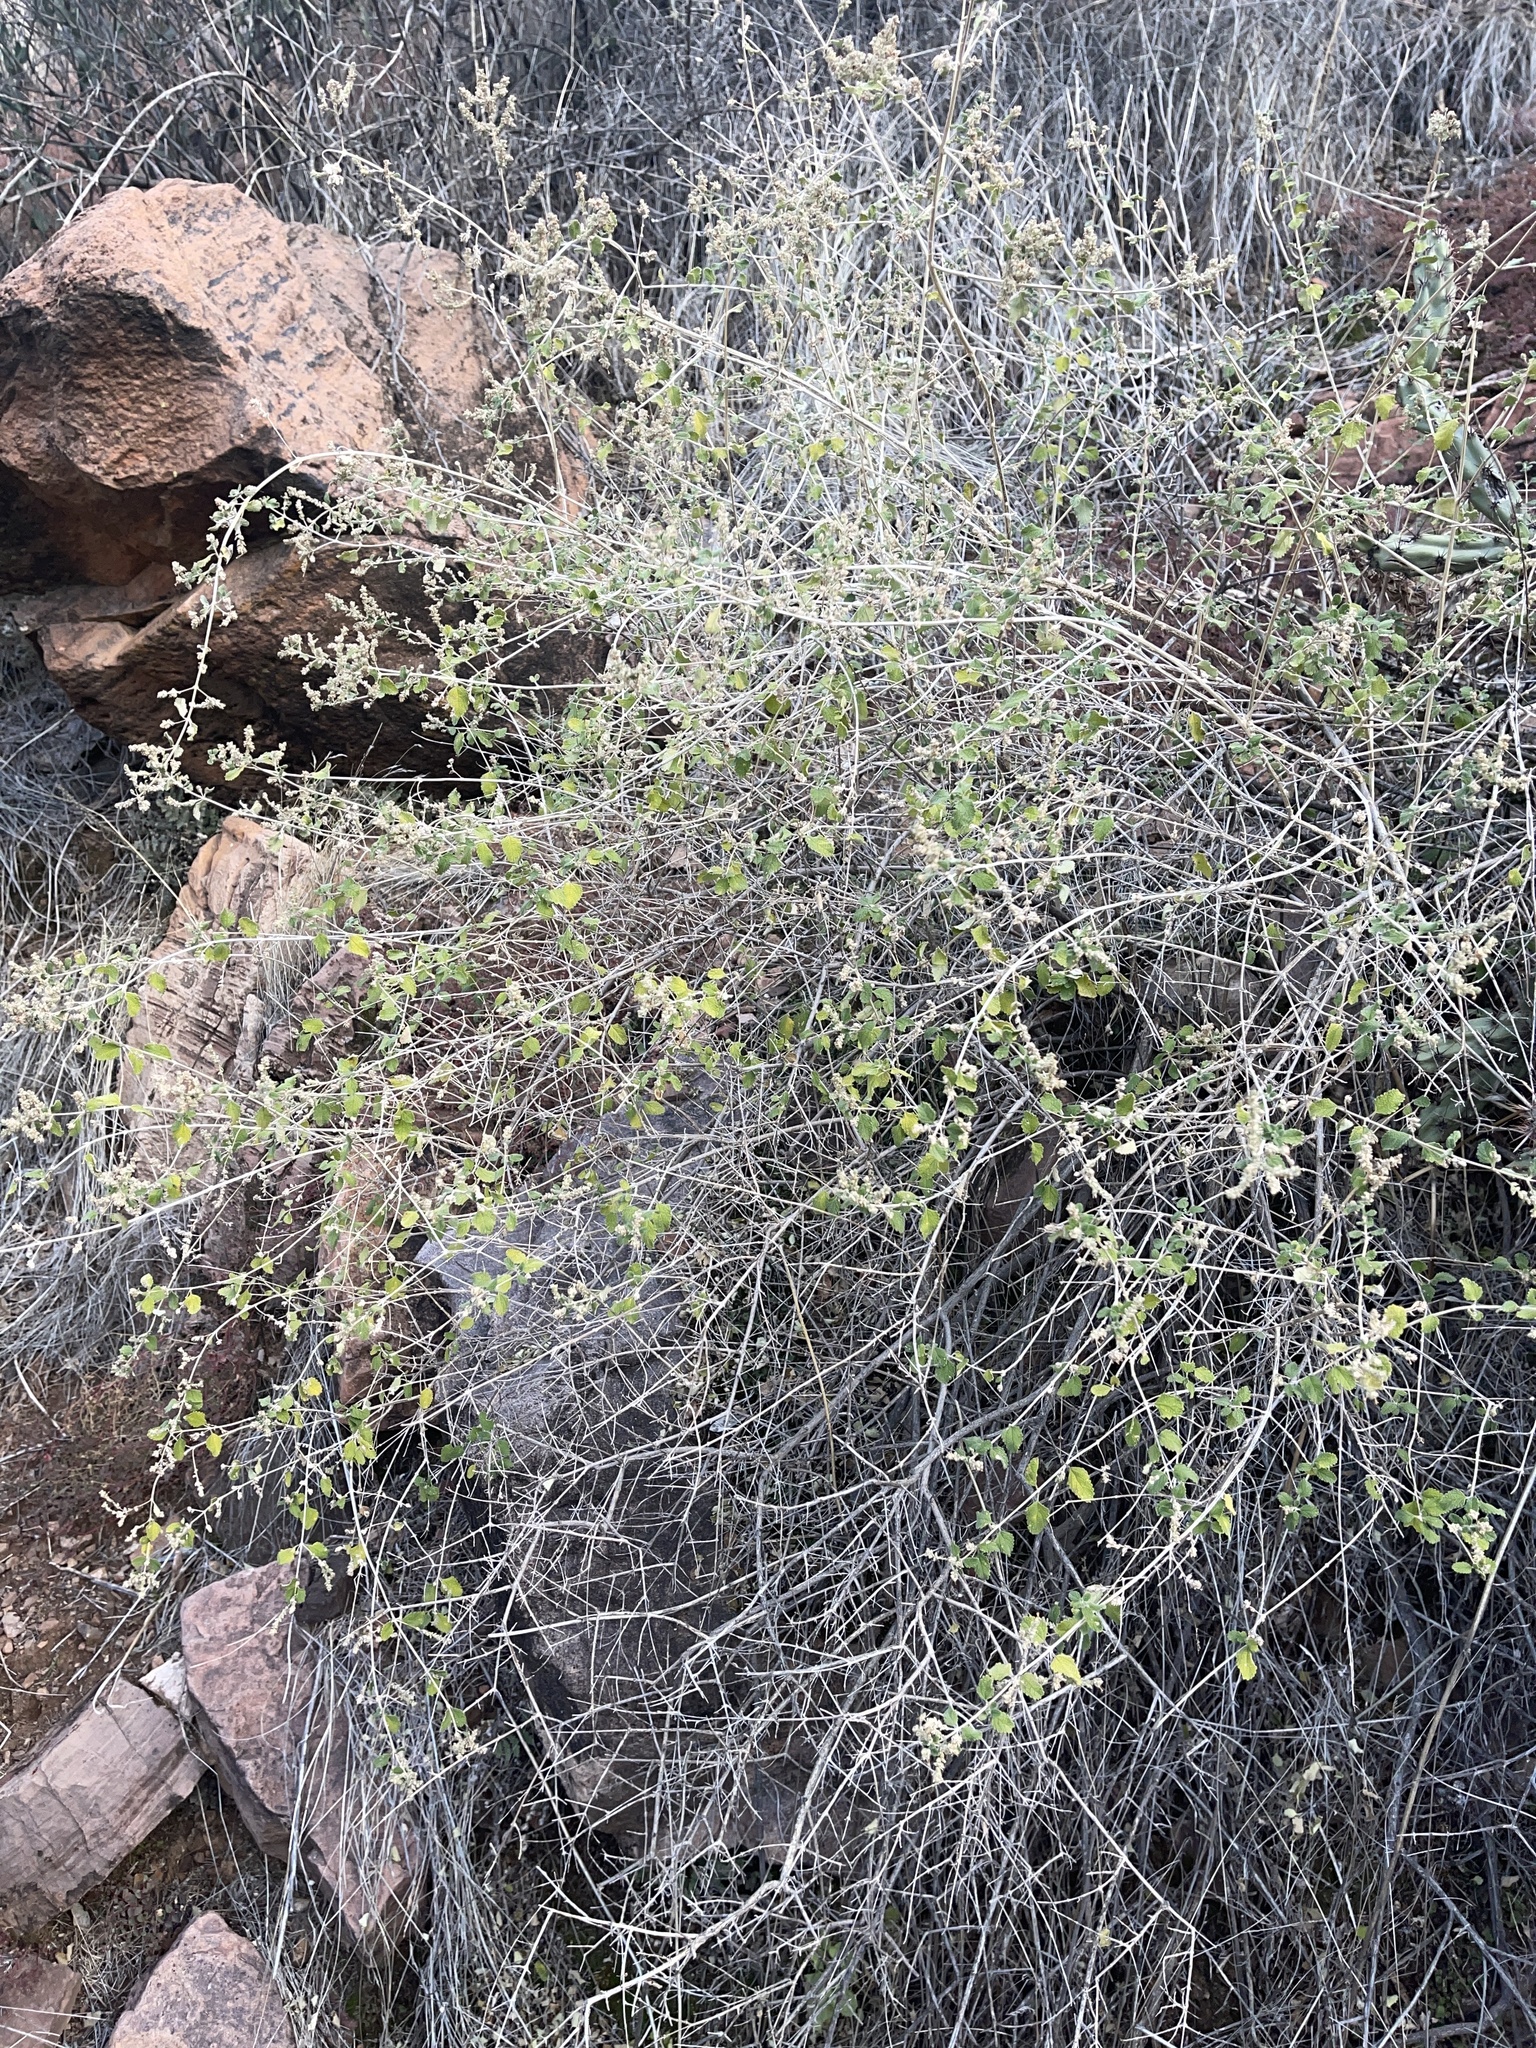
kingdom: Plantae
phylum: Tracheophyta
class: Magnoliopsida
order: Lamiales
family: Verbenaceae
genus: Aloysia
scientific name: Aloysia wrightii
